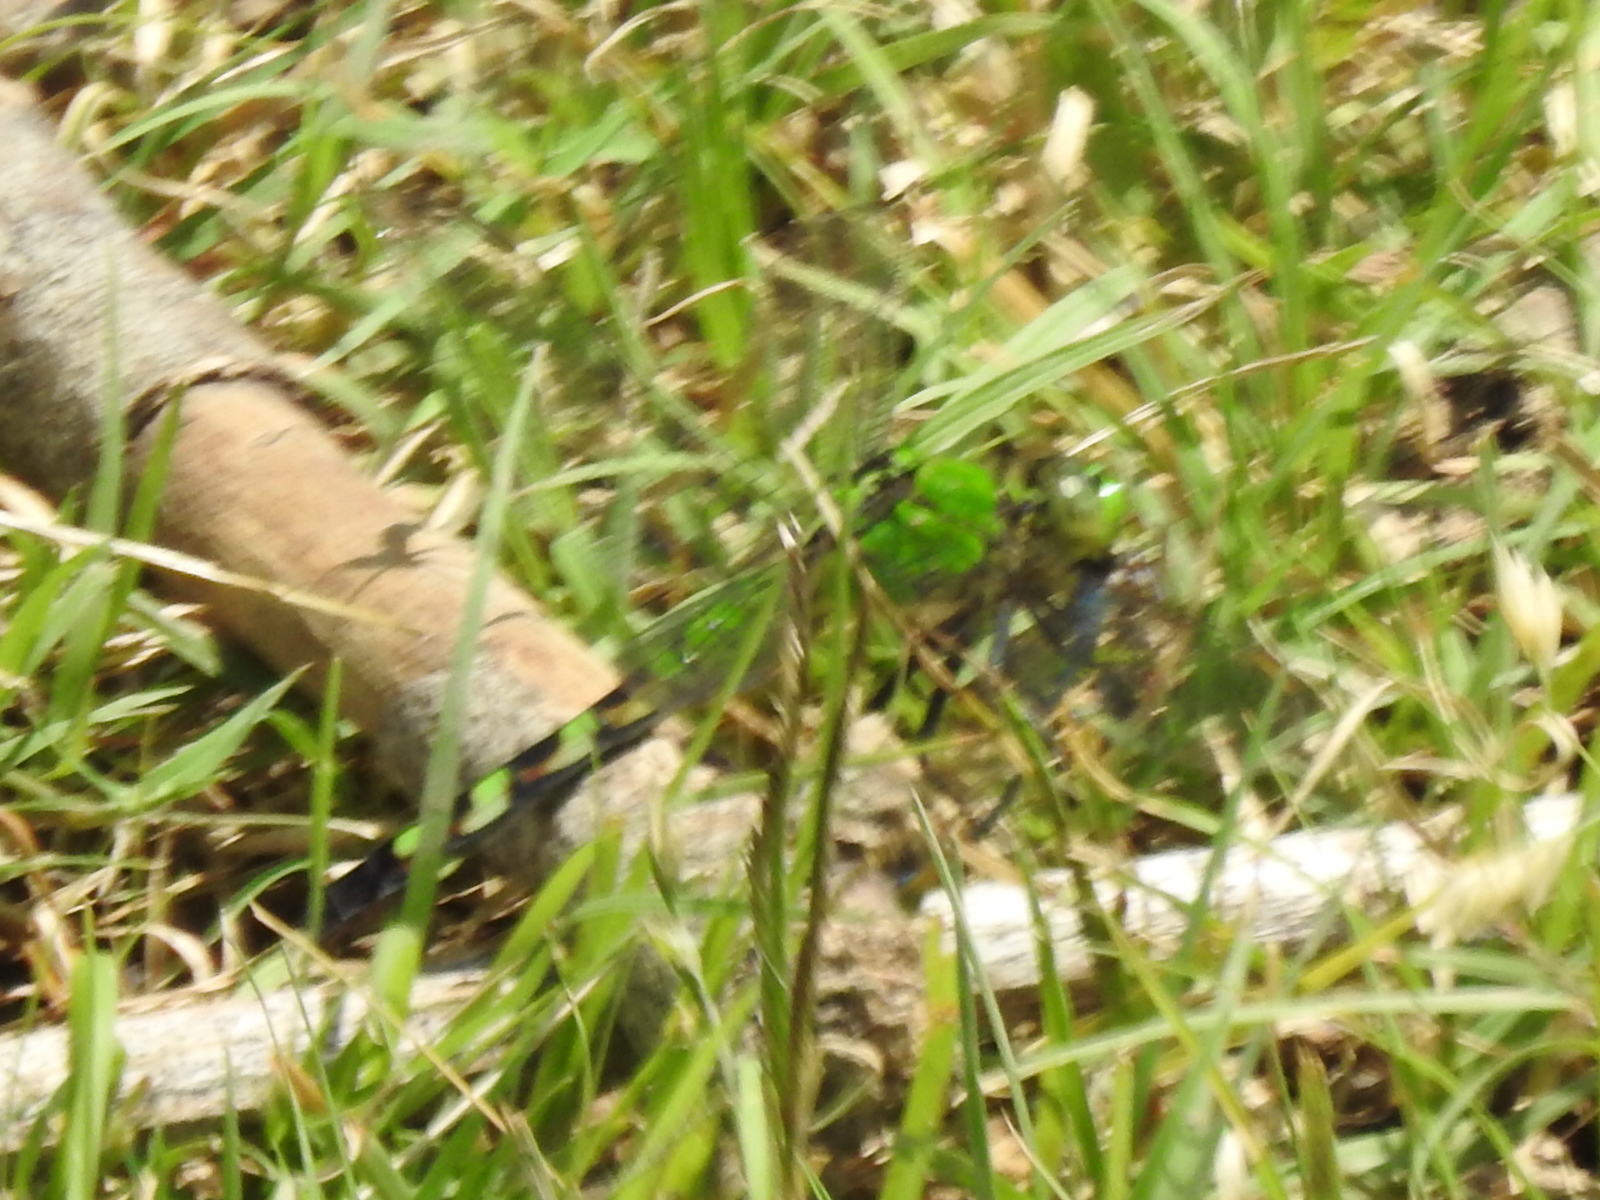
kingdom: Animalia
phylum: Arthropoda
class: Insecta
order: Odonata
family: Libellulidae
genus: Erythemis
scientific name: Erythemis simplicicollis
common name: Eastern pondhawk
